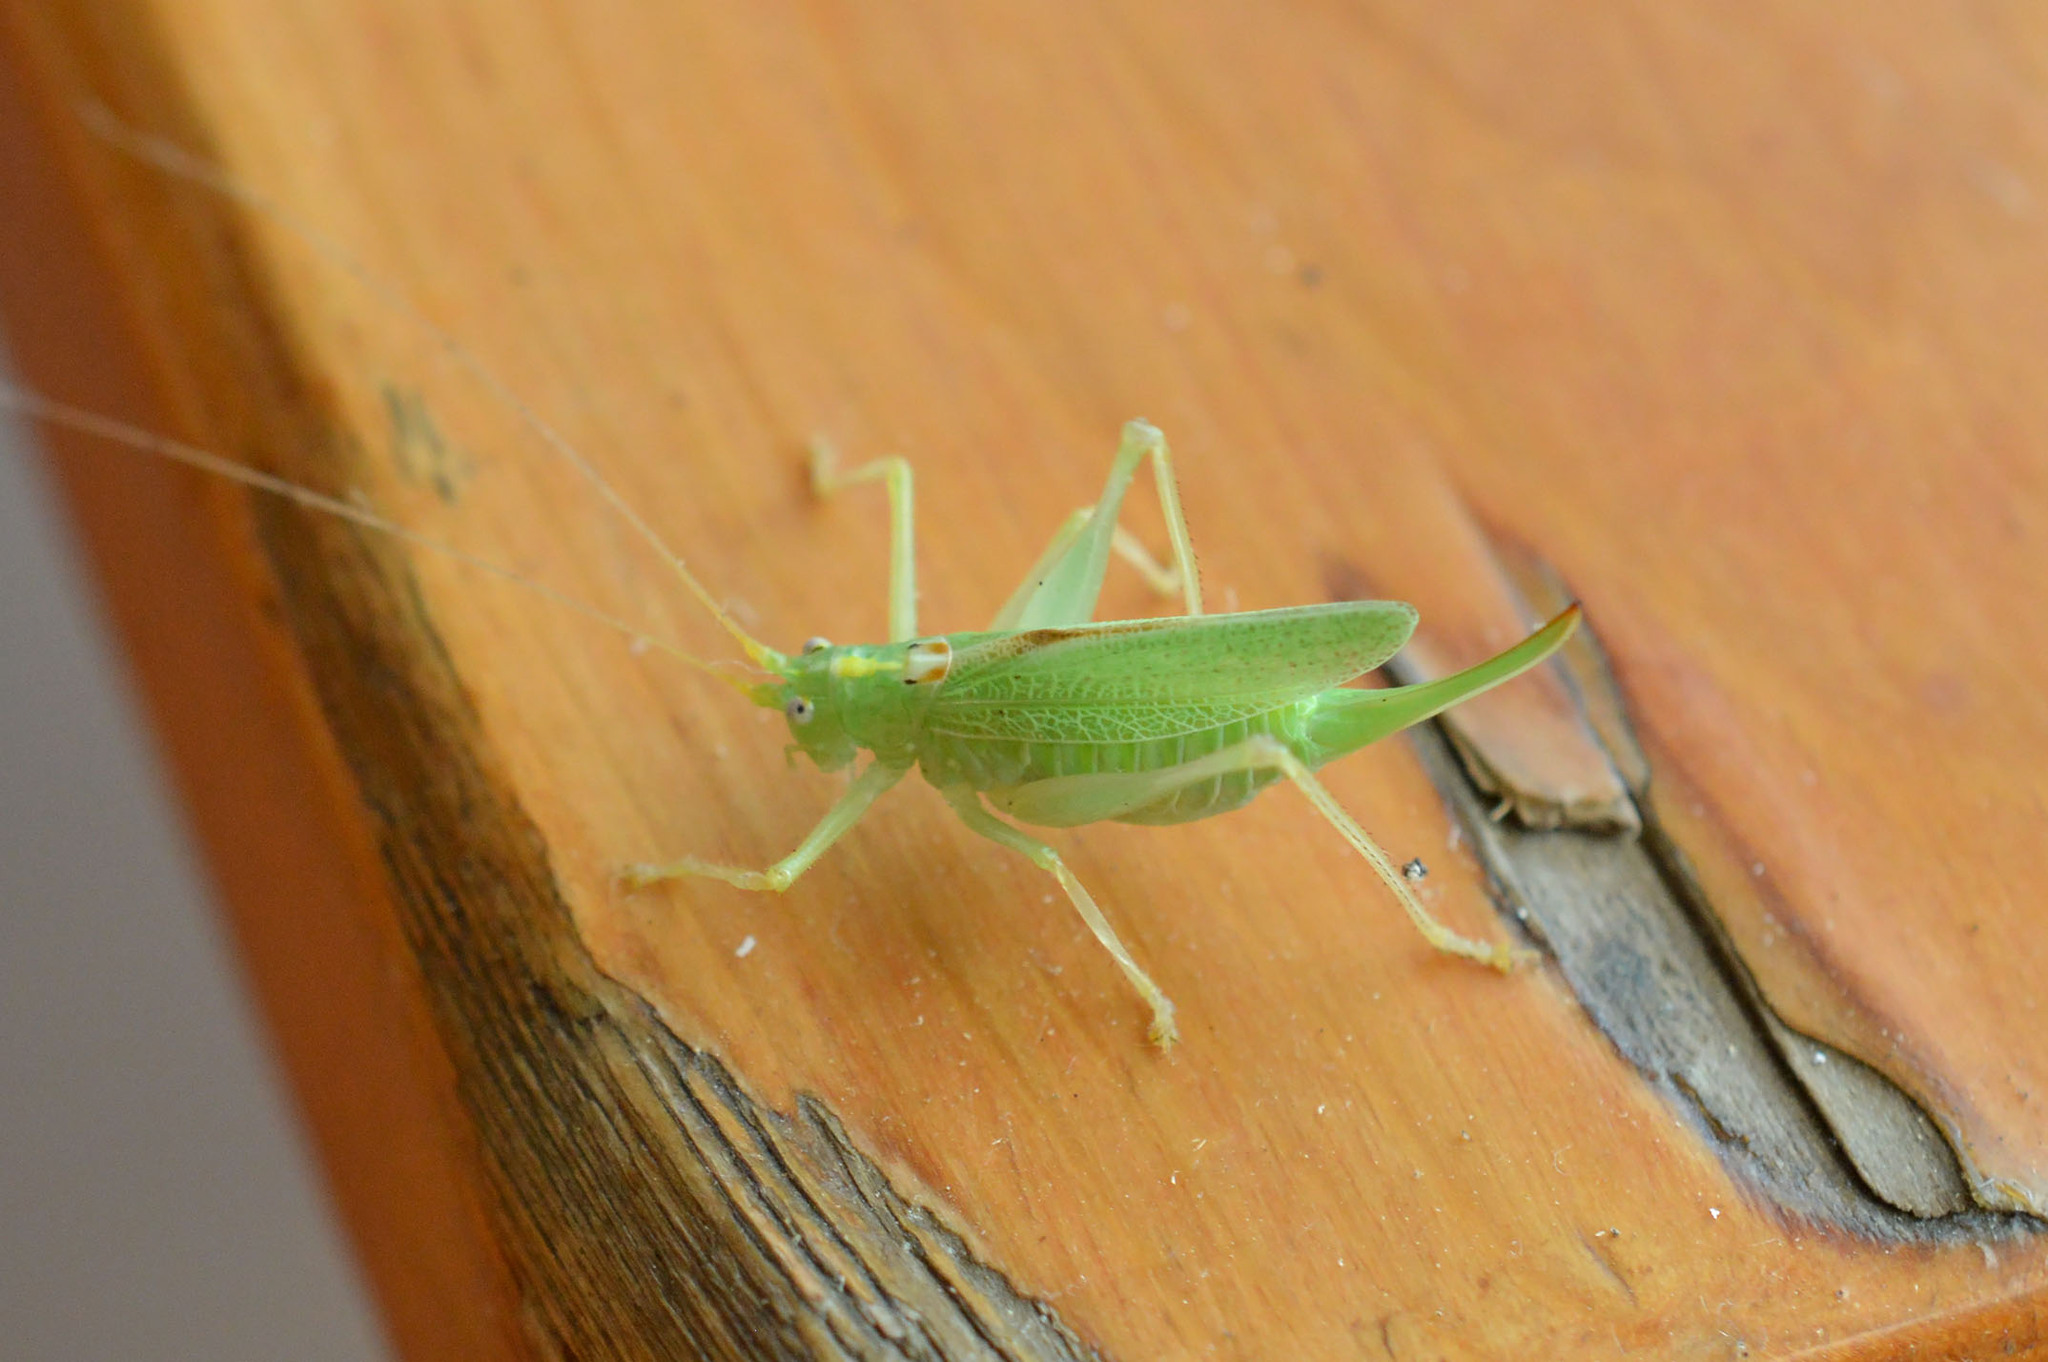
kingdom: Animalia
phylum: Arthropoda
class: Insecta
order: Orthoptera
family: Tettigoniidae
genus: Meconema
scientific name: Meconema thalassinum
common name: Oak bush-cricket
